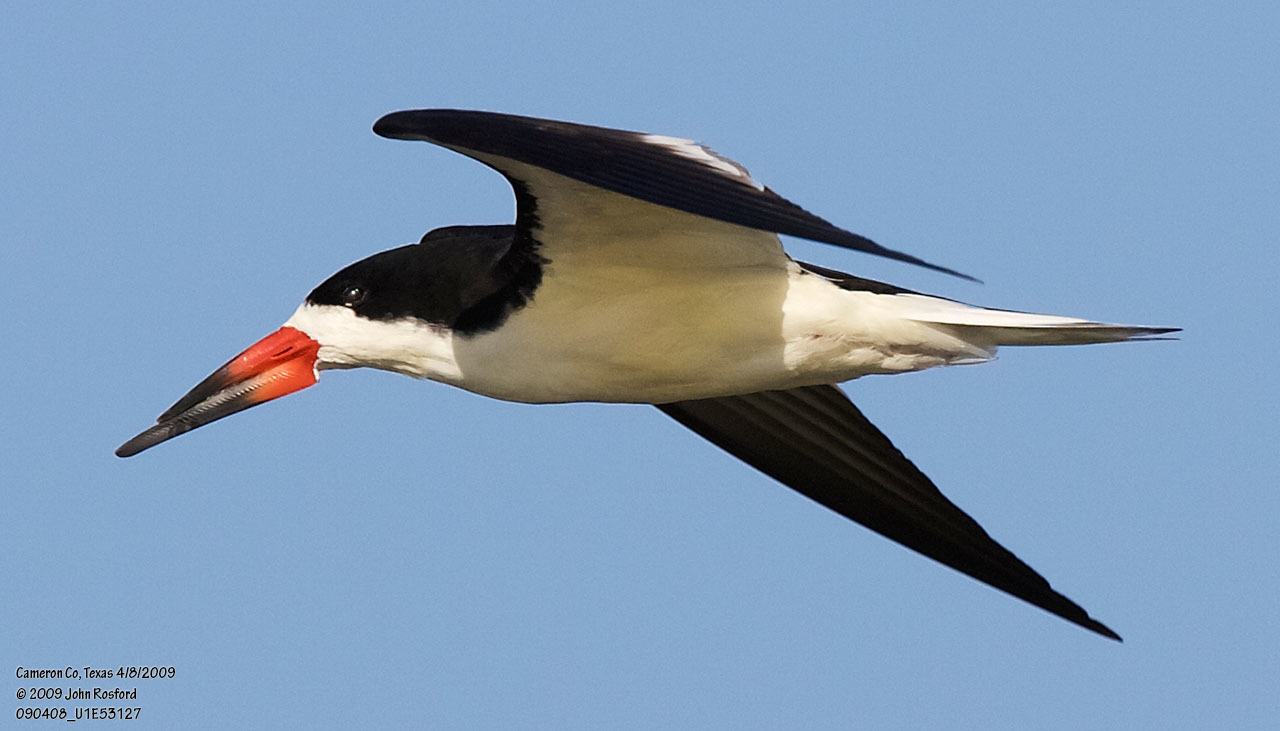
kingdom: Animalia
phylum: Chordata
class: Aves
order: Charadriiformes
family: Laridae
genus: Rynchops
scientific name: Rynchops niger
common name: Black skimmer
